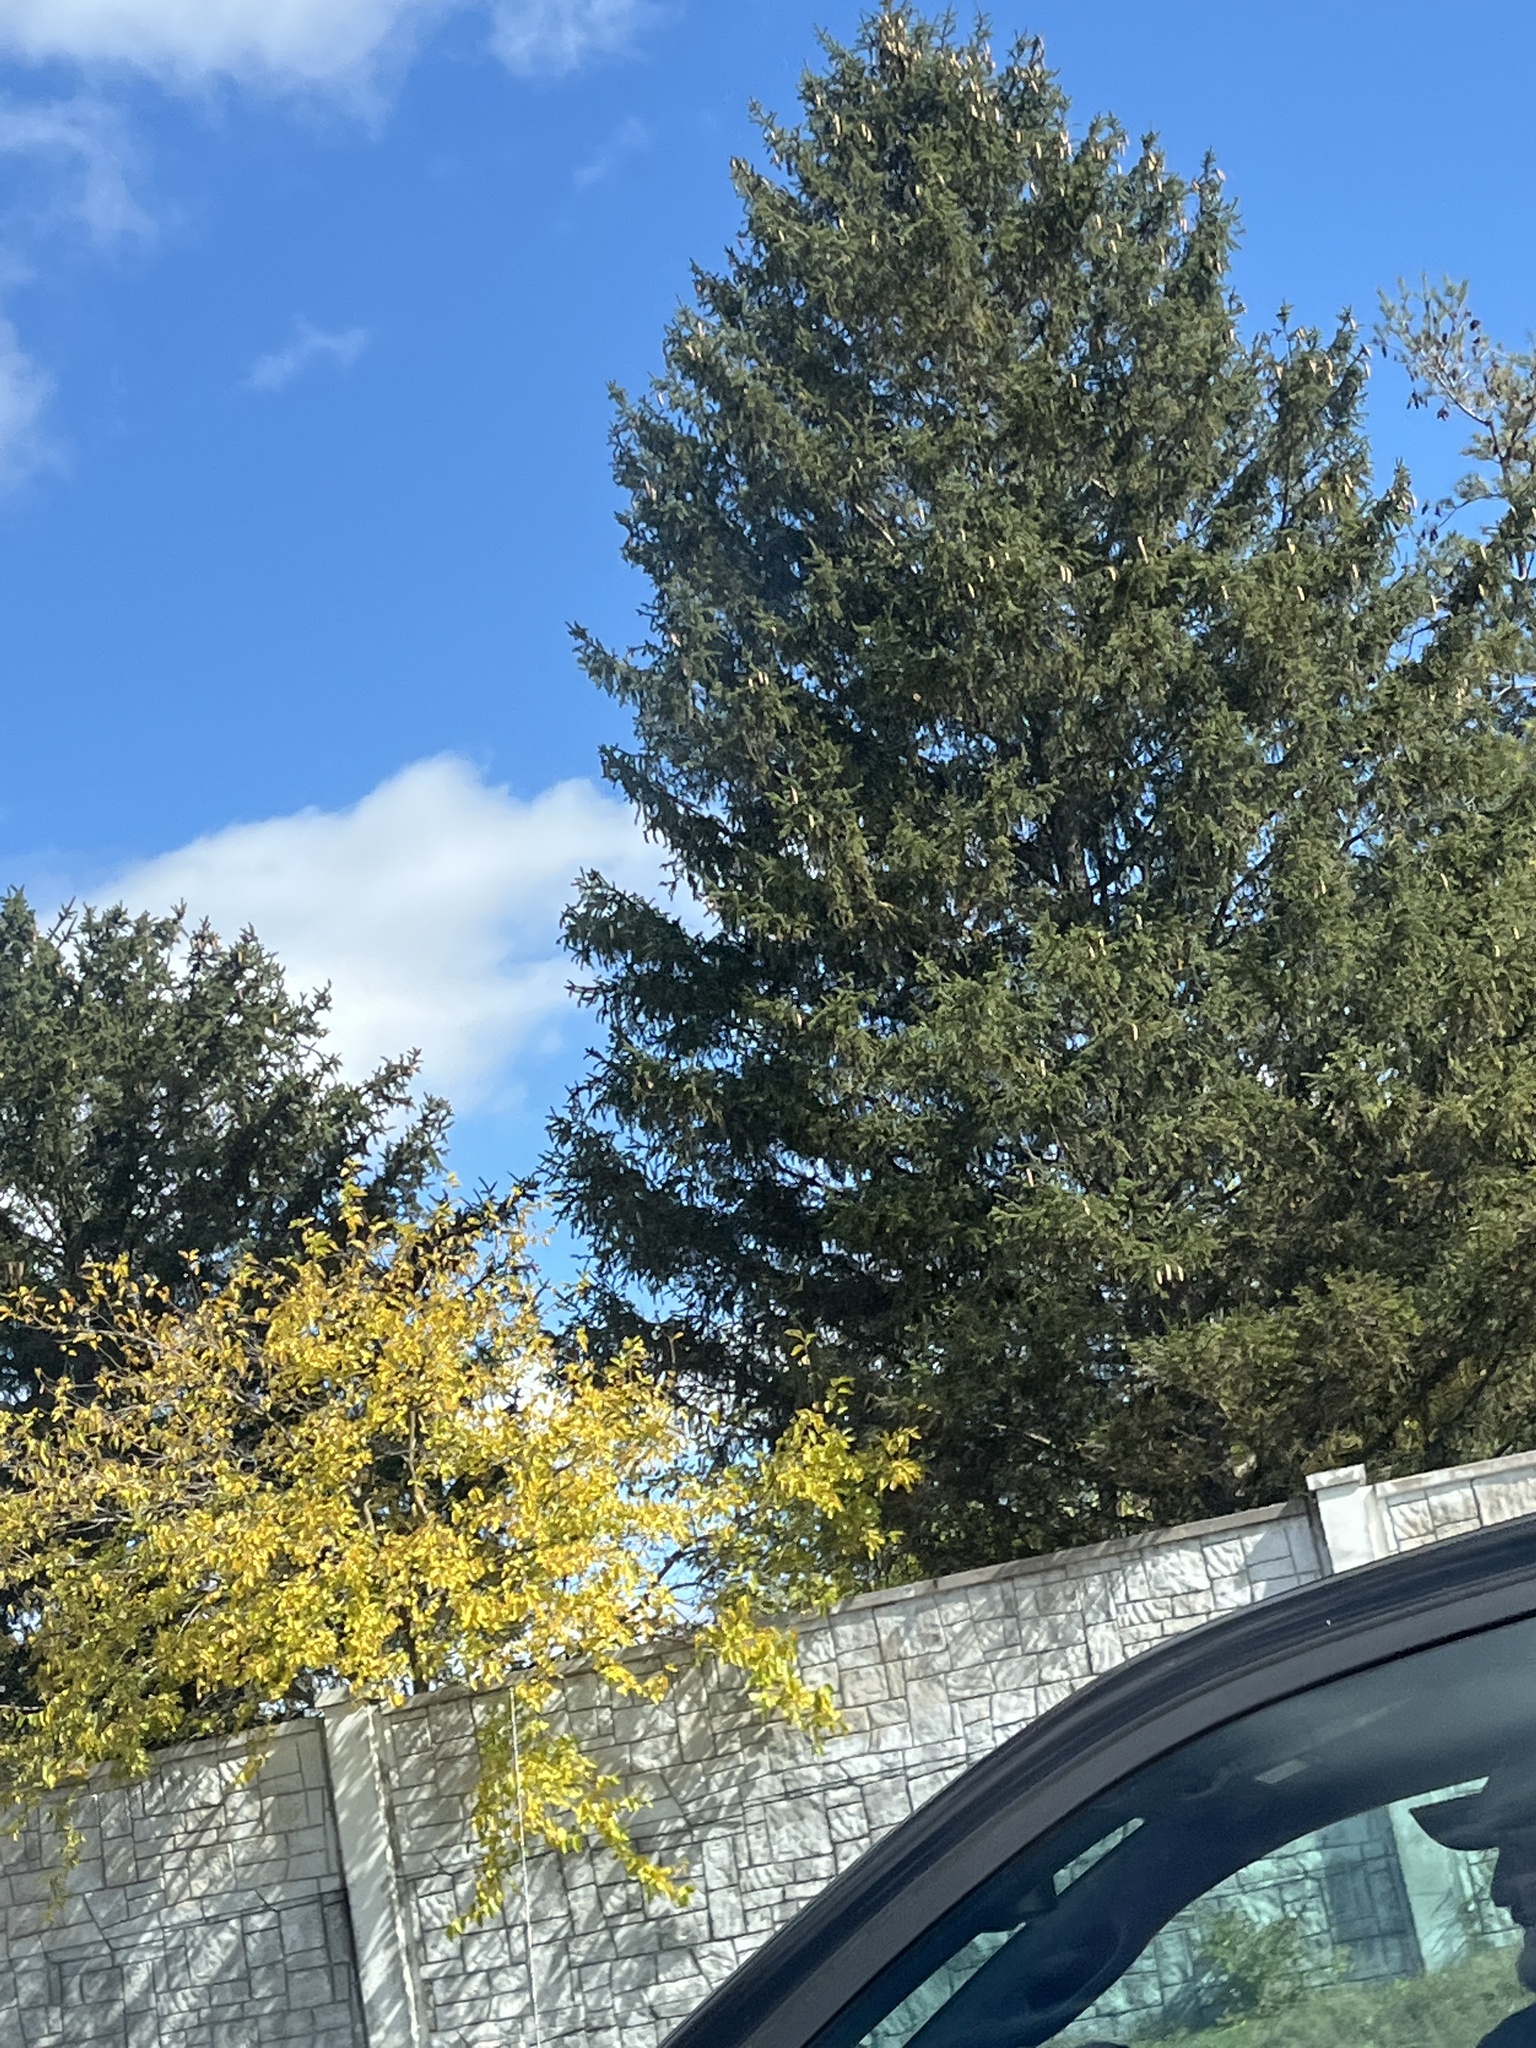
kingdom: Plantae
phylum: Tracheophyta
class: Pinopsida
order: Pinales
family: Pinaceae
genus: Picea
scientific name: Picea abies
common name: Norway spruce
